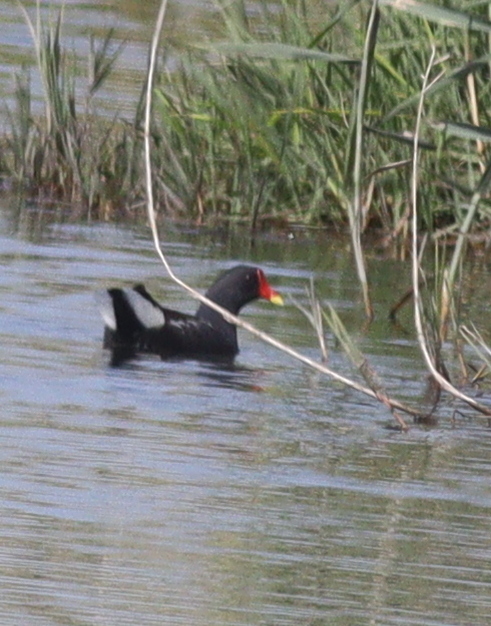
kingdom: Animalia
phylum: Chordata
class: Aves
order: Gruiformes
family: Rallidae
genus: Gallinula
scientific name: Gallinula chloropus
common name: Common moorhen
